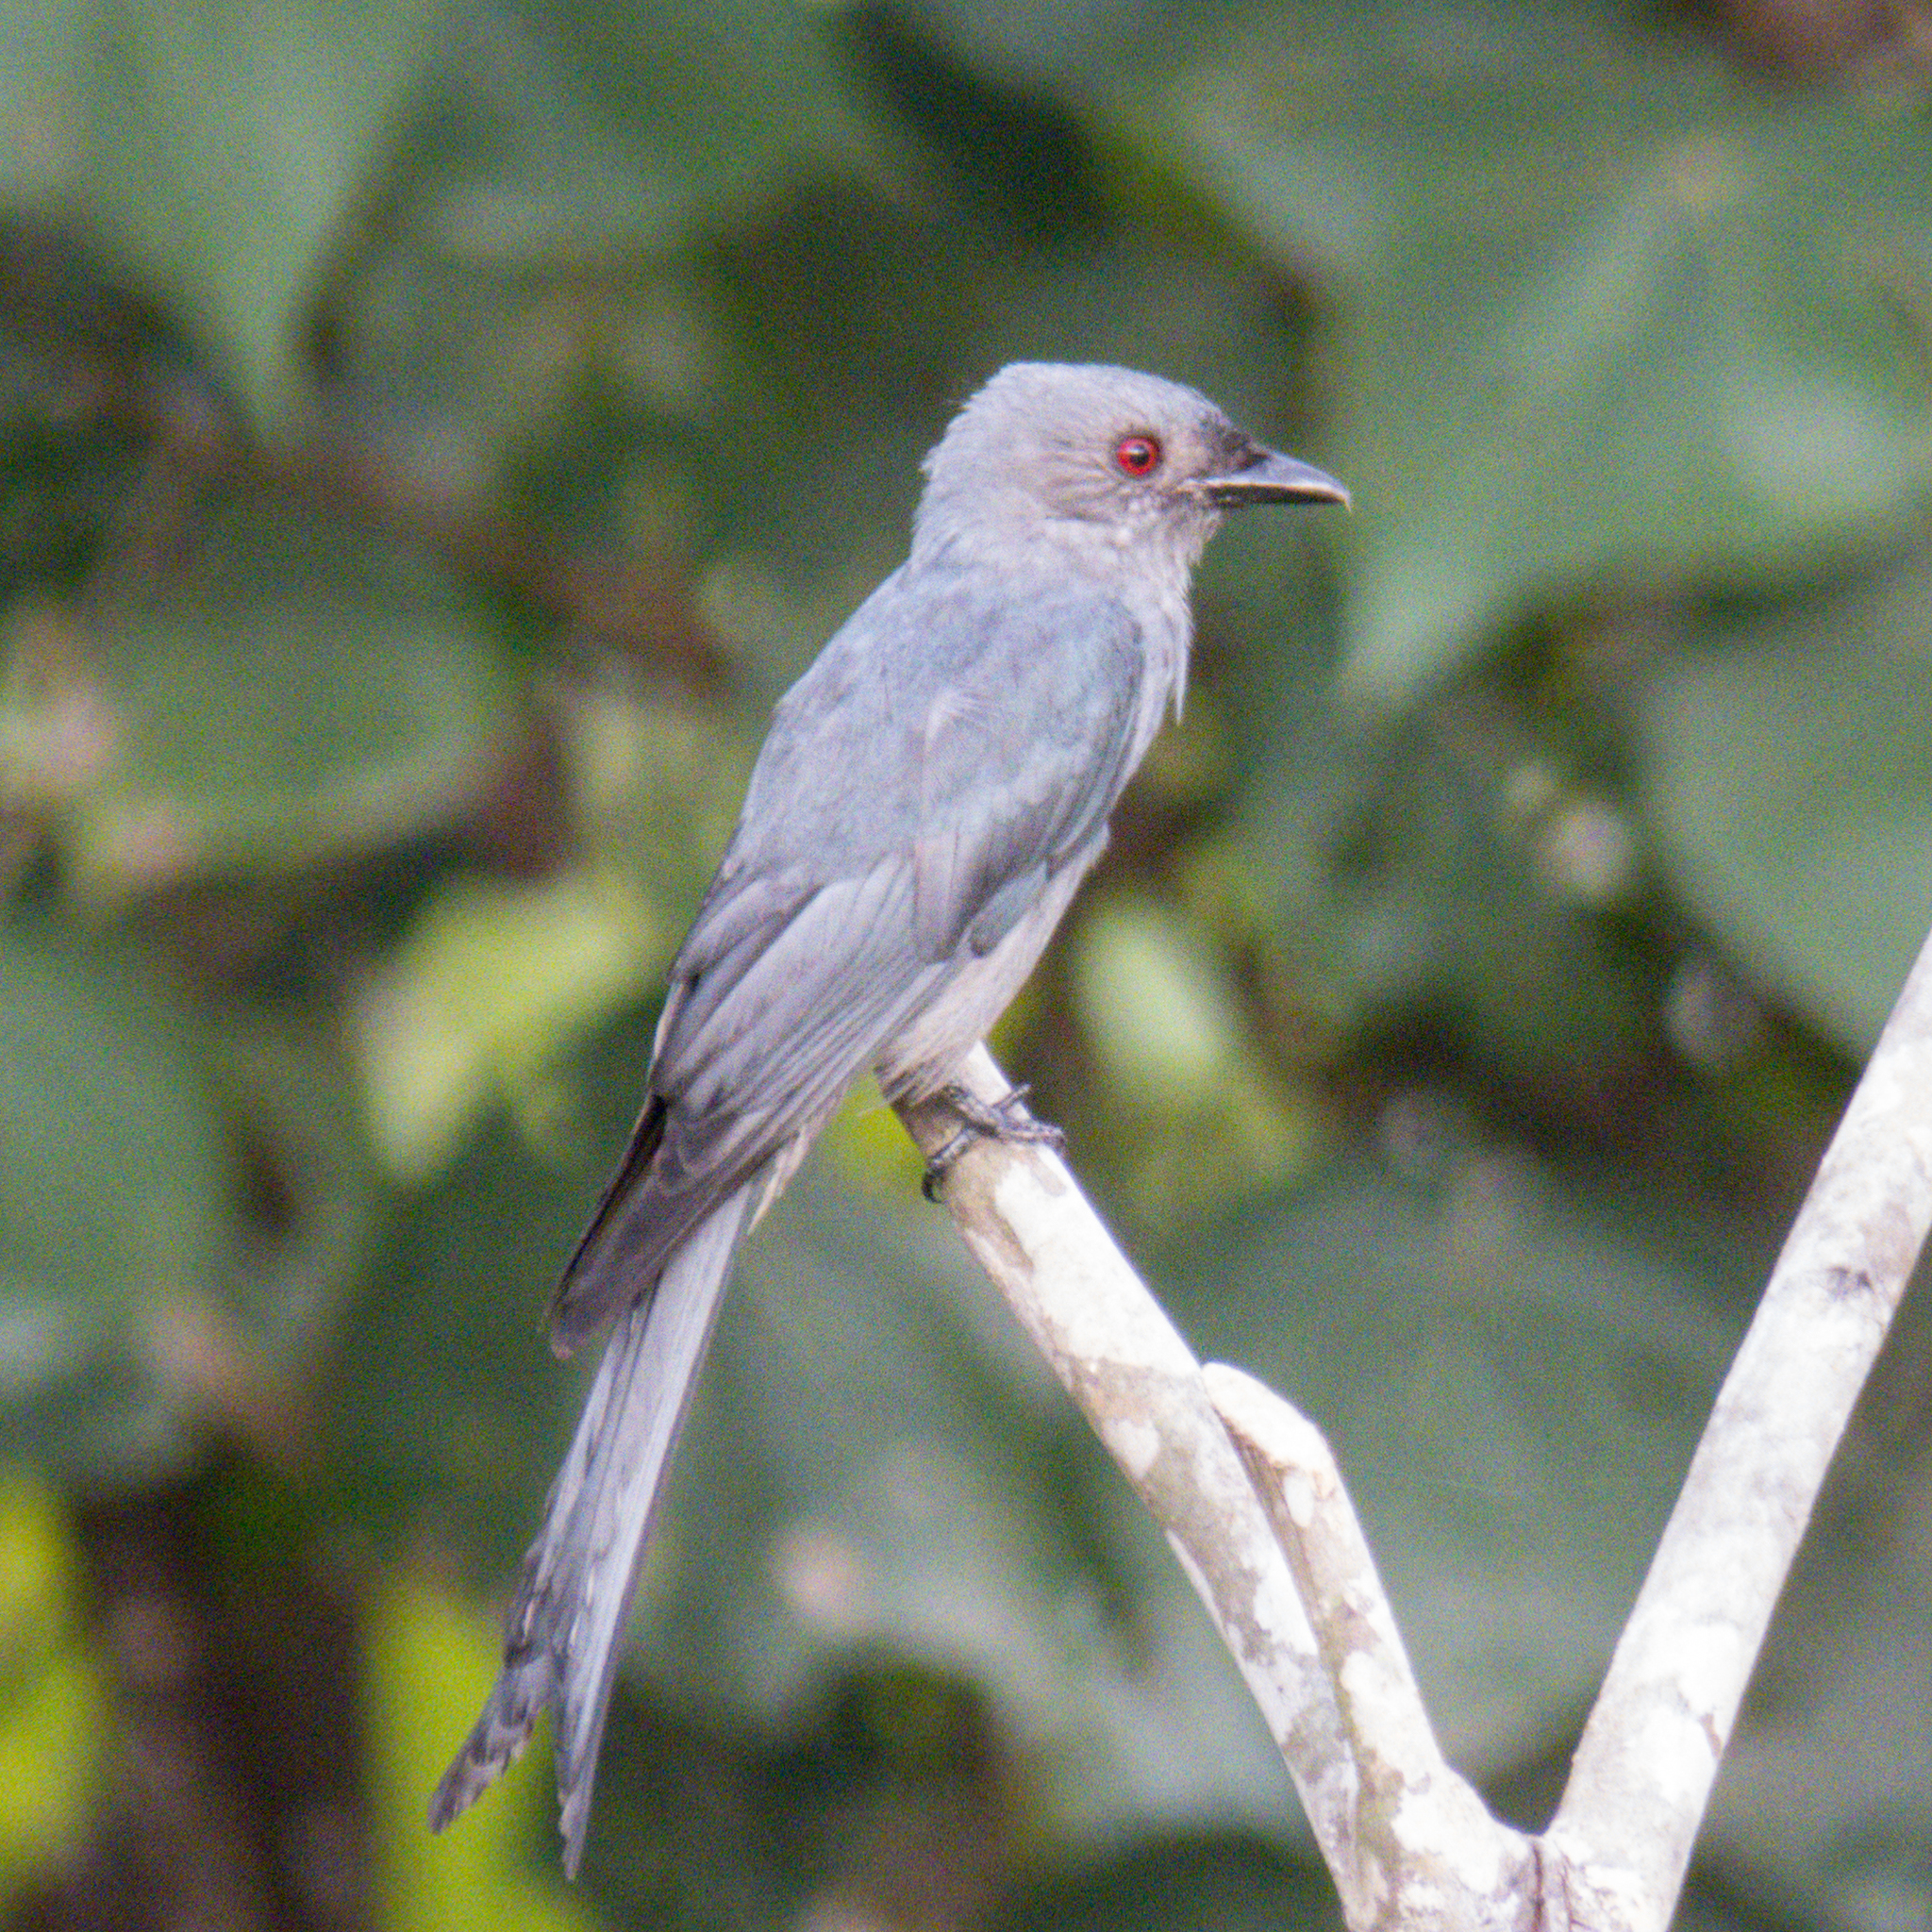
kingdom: Animalia
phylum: Chordata
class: Aves
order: Passeriformes
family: Dicruridae
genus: Dicrurus
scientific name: Dicrurus leucophaeus
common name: Ashy drongo
